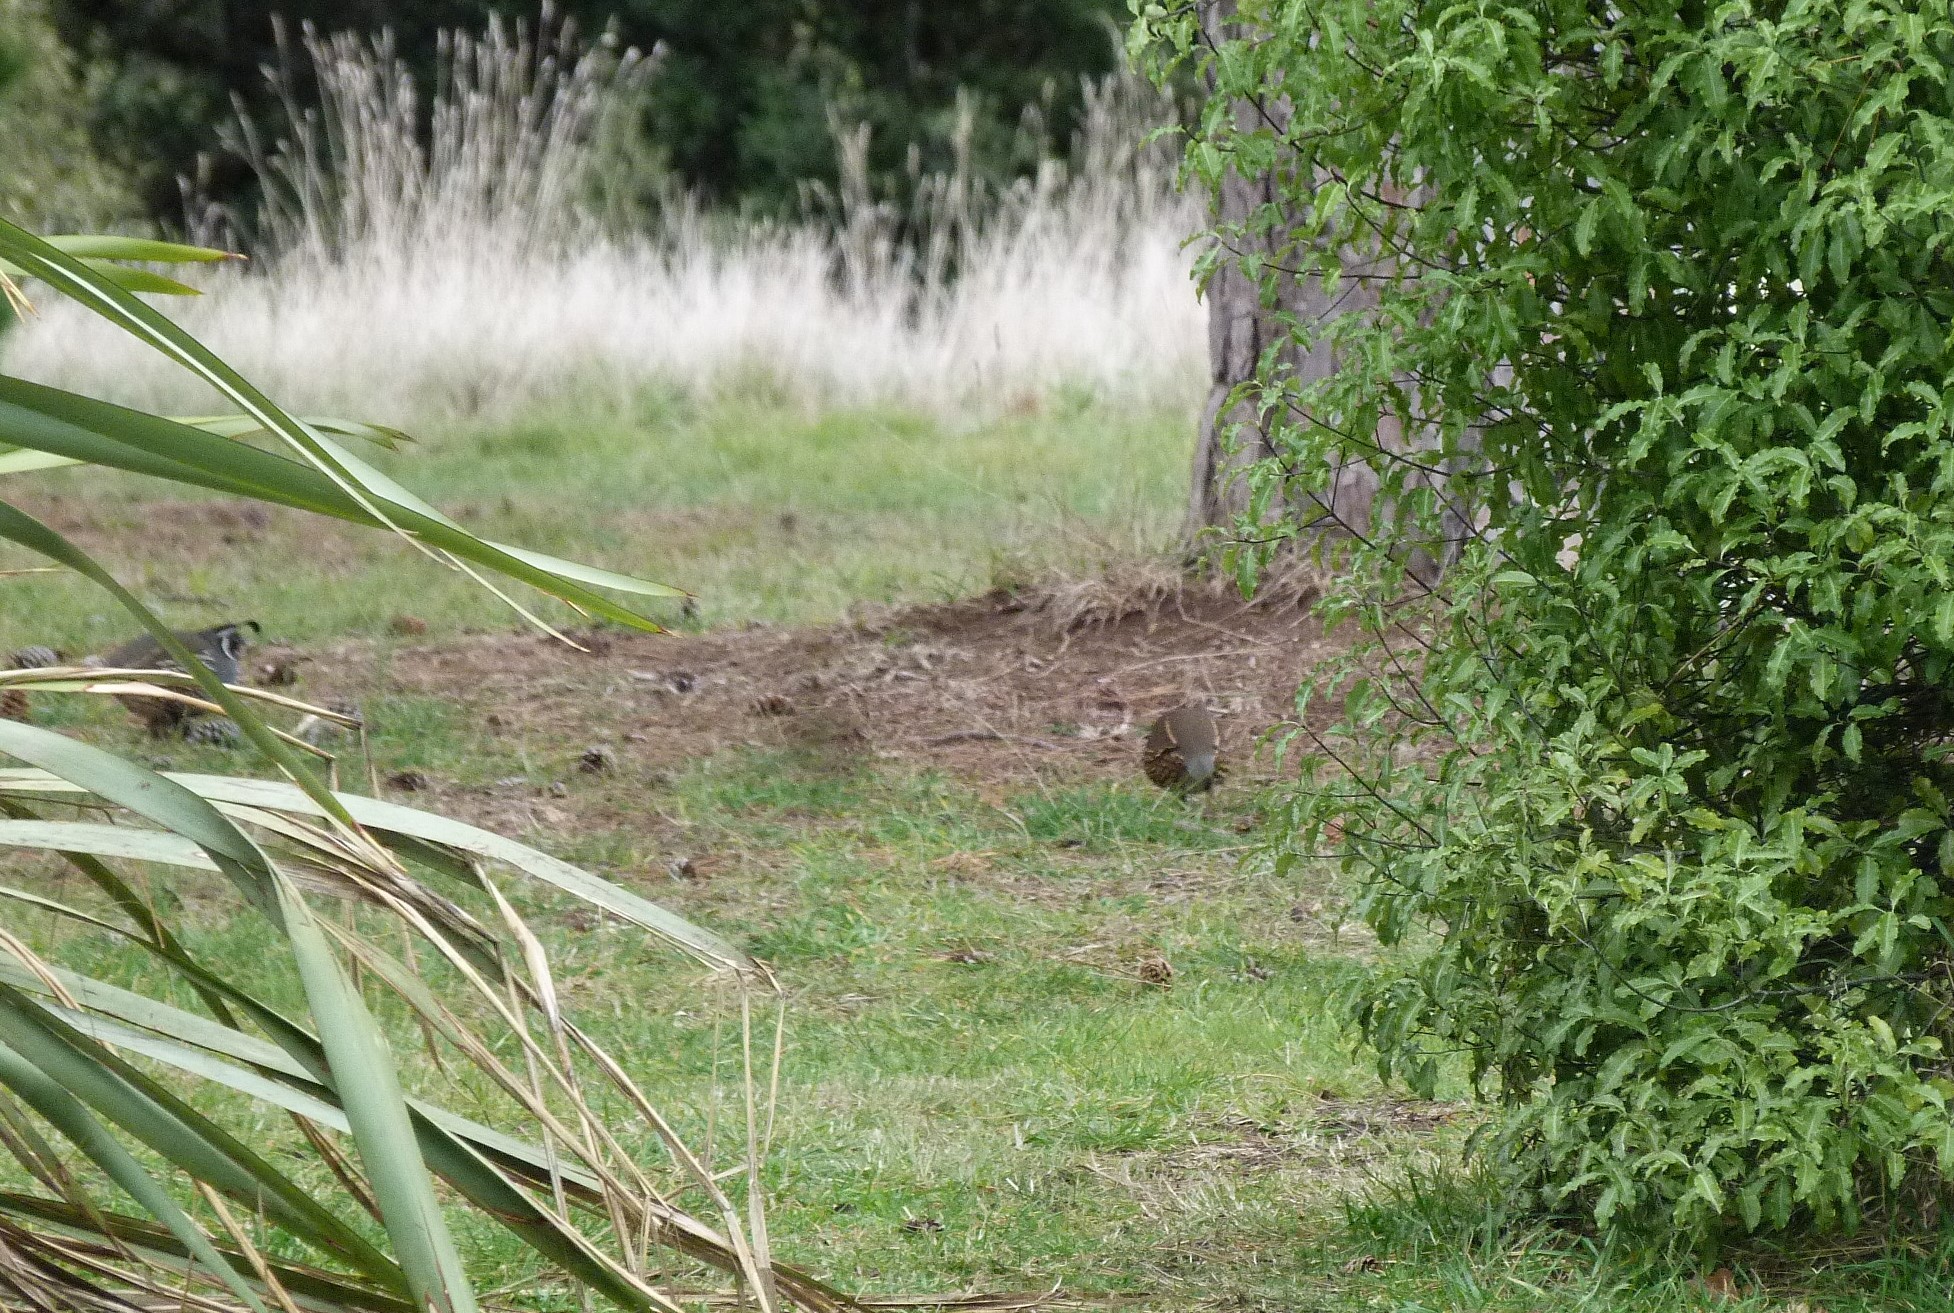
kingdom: Animalia
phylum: Chordata
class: Aves
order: Galliformes
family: Odontophoridae
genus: Callipepla
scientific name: Callipepla californica
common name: California quail
